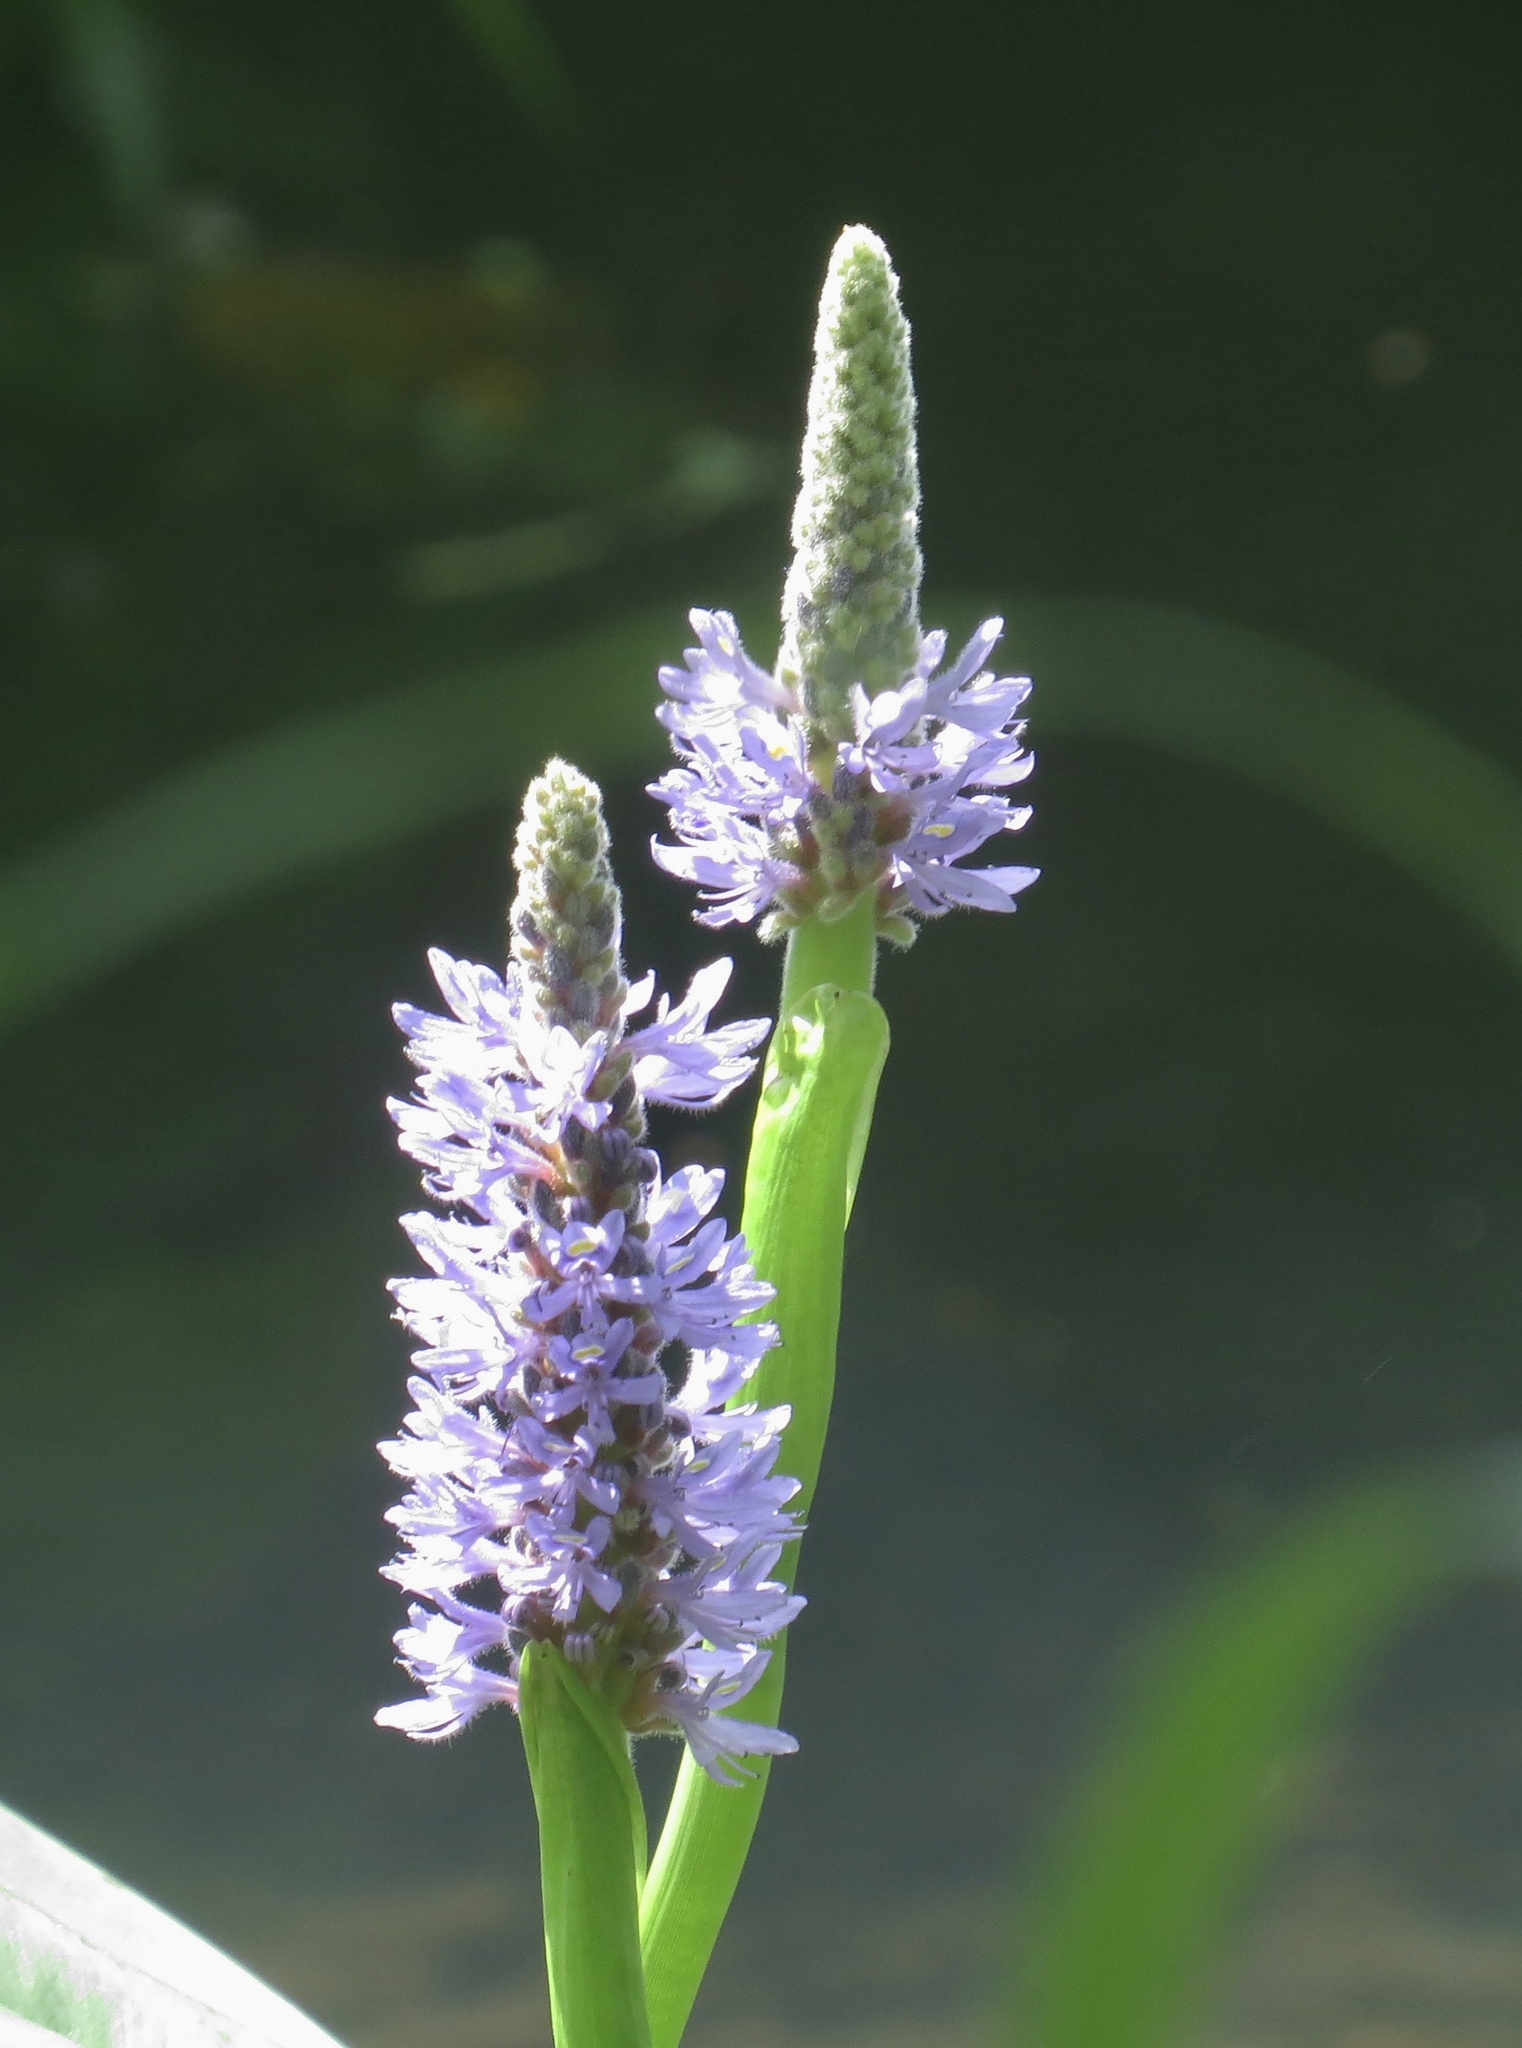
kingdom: Plantae
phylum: Tracheophyta
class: Liliopsida
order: Commelinales
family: Pontederiaceae
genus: Pontederia
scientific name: Pontederia cordata
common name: Pickerelweed
